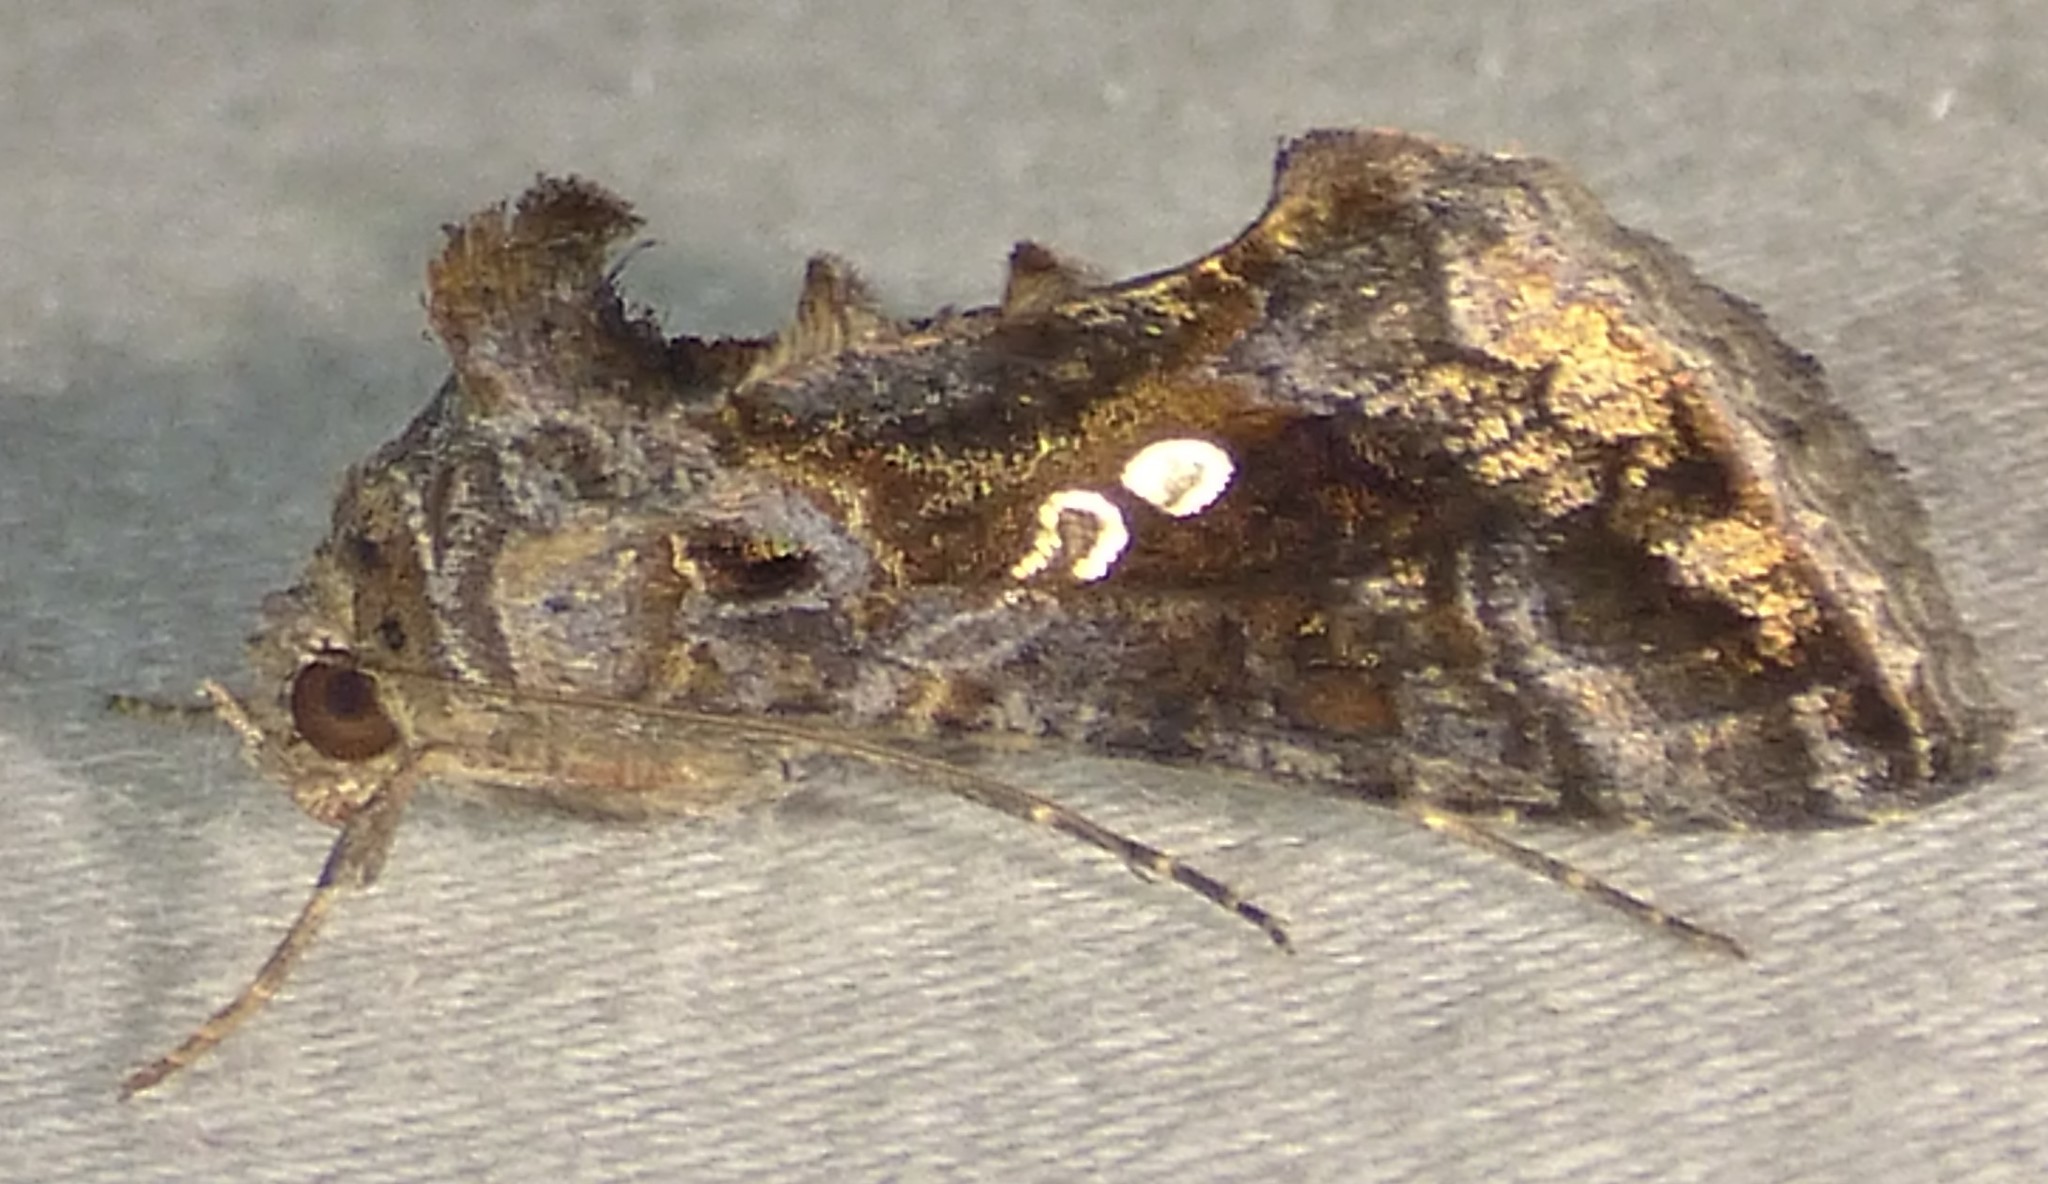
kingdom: Animalia
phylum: Arthropoda
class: Insecta
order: Lepidoptera
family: Noctuidae
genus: Chrysodeixis
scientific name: Chrysodeixis includens
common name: Cutworm moth
